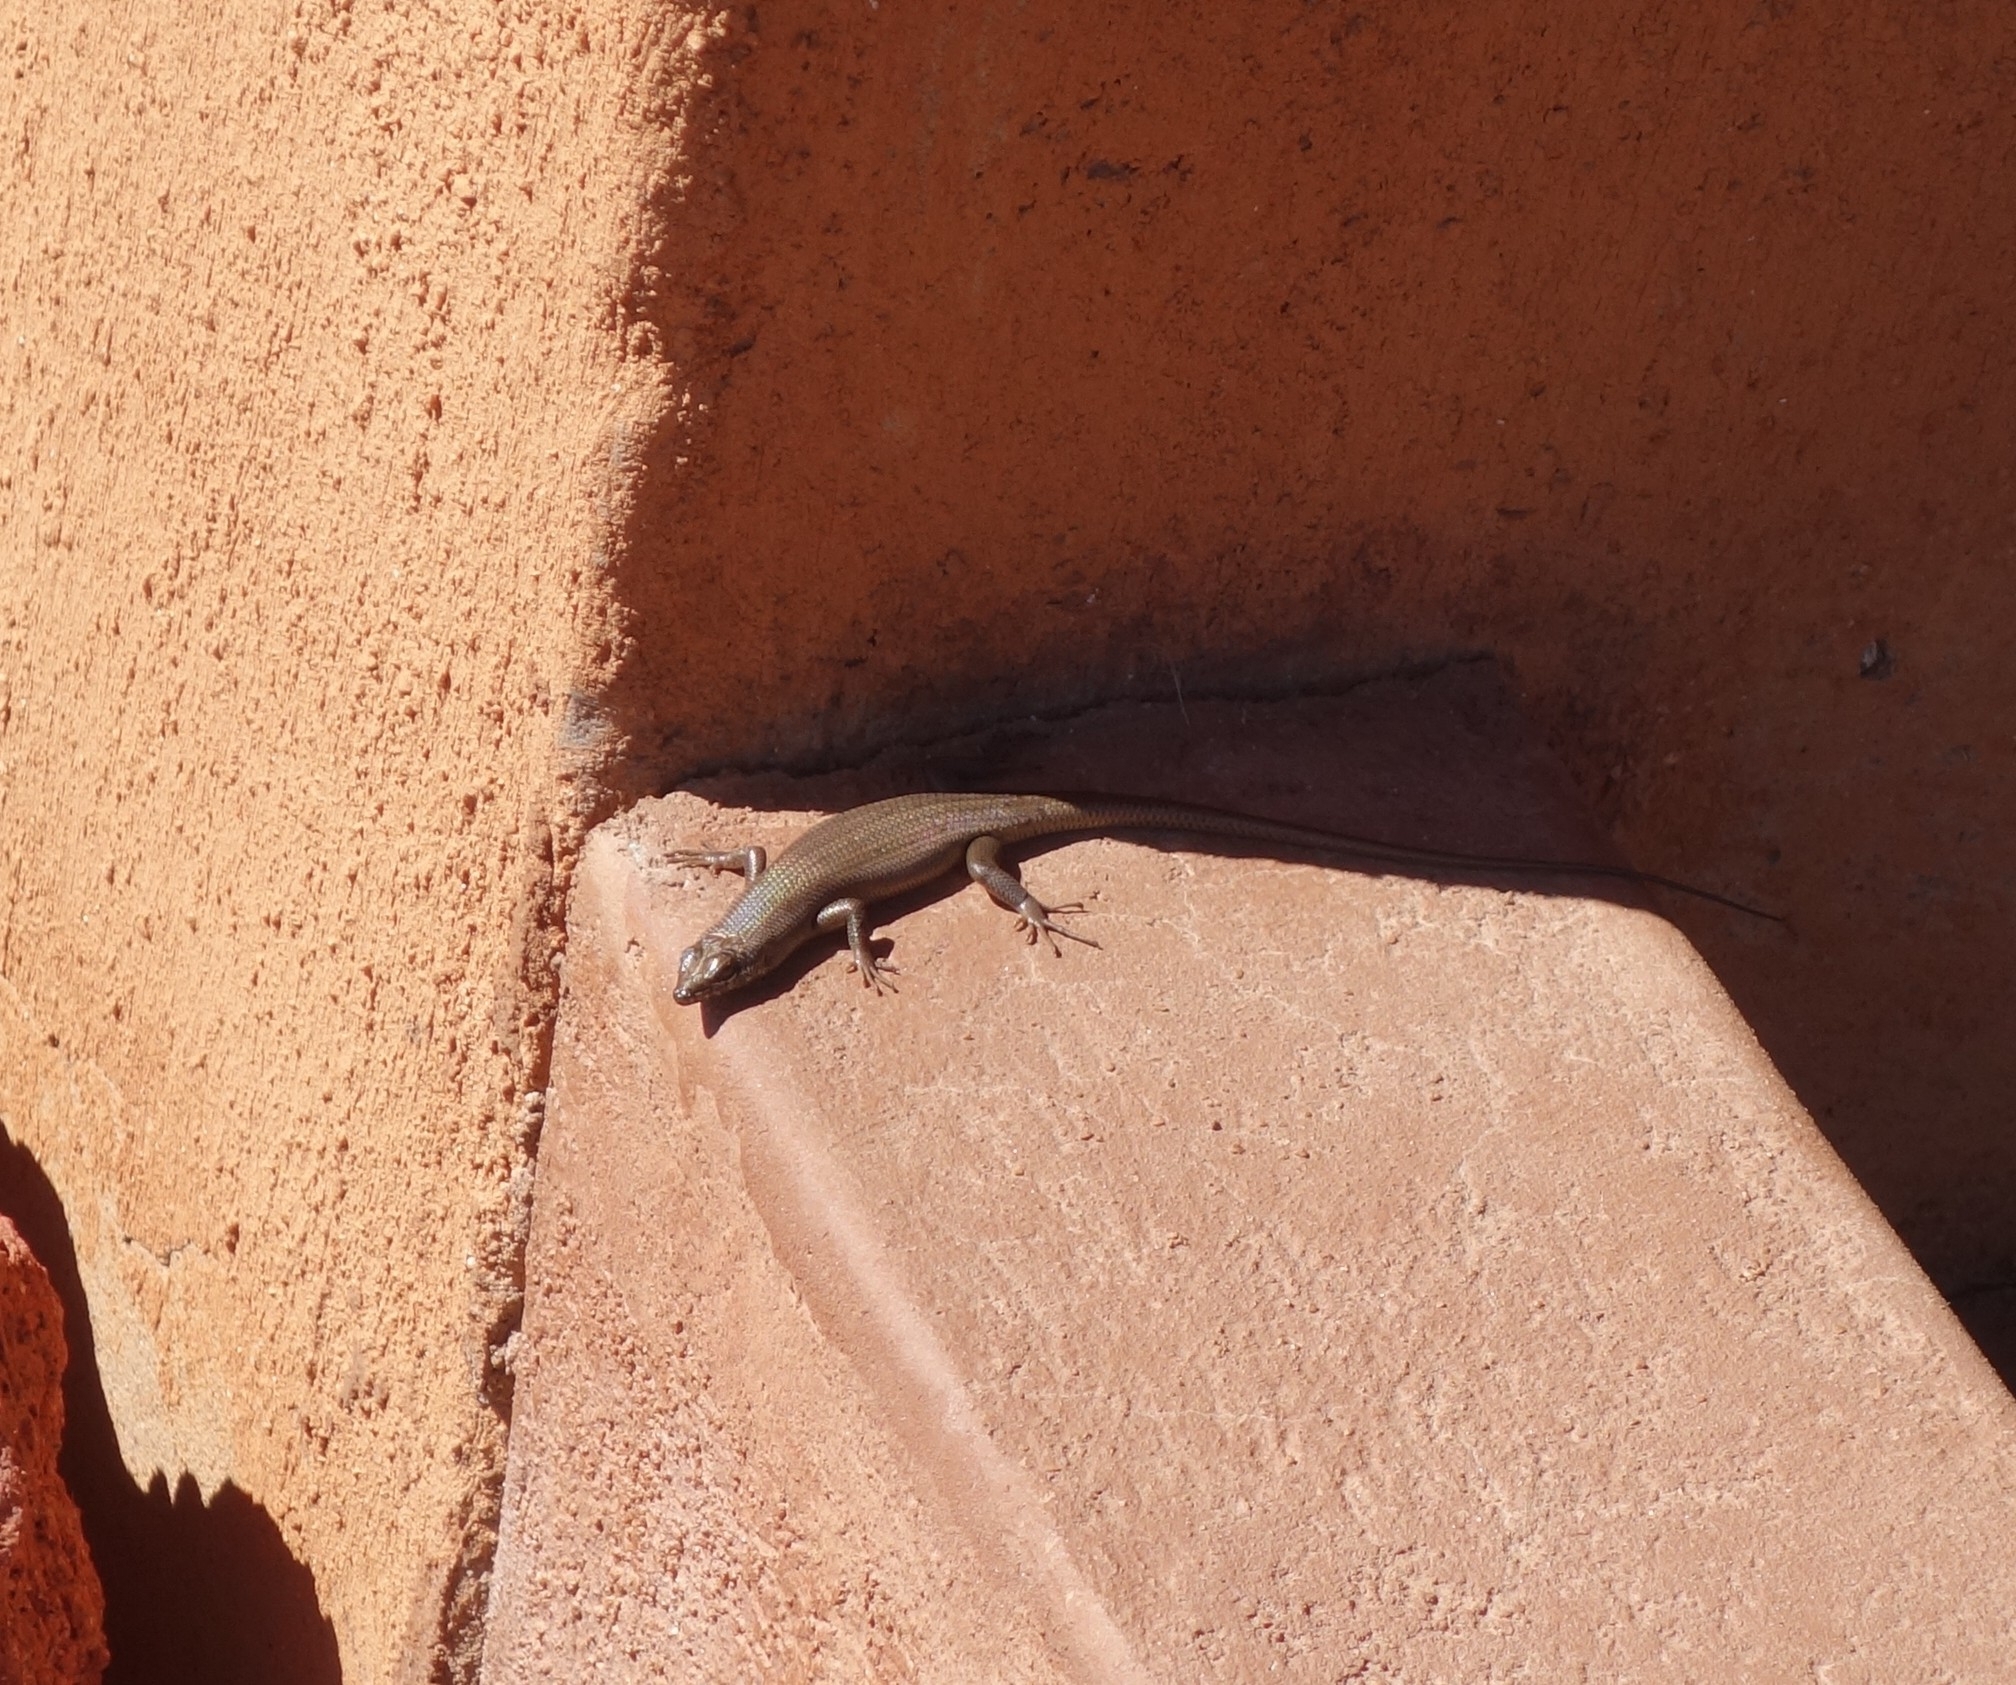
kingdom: Animalia
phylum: Chordata
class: Squamata
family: Scincidae
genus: Trachylepis
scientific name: Trachylepis sulcata
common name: Western rock skink
